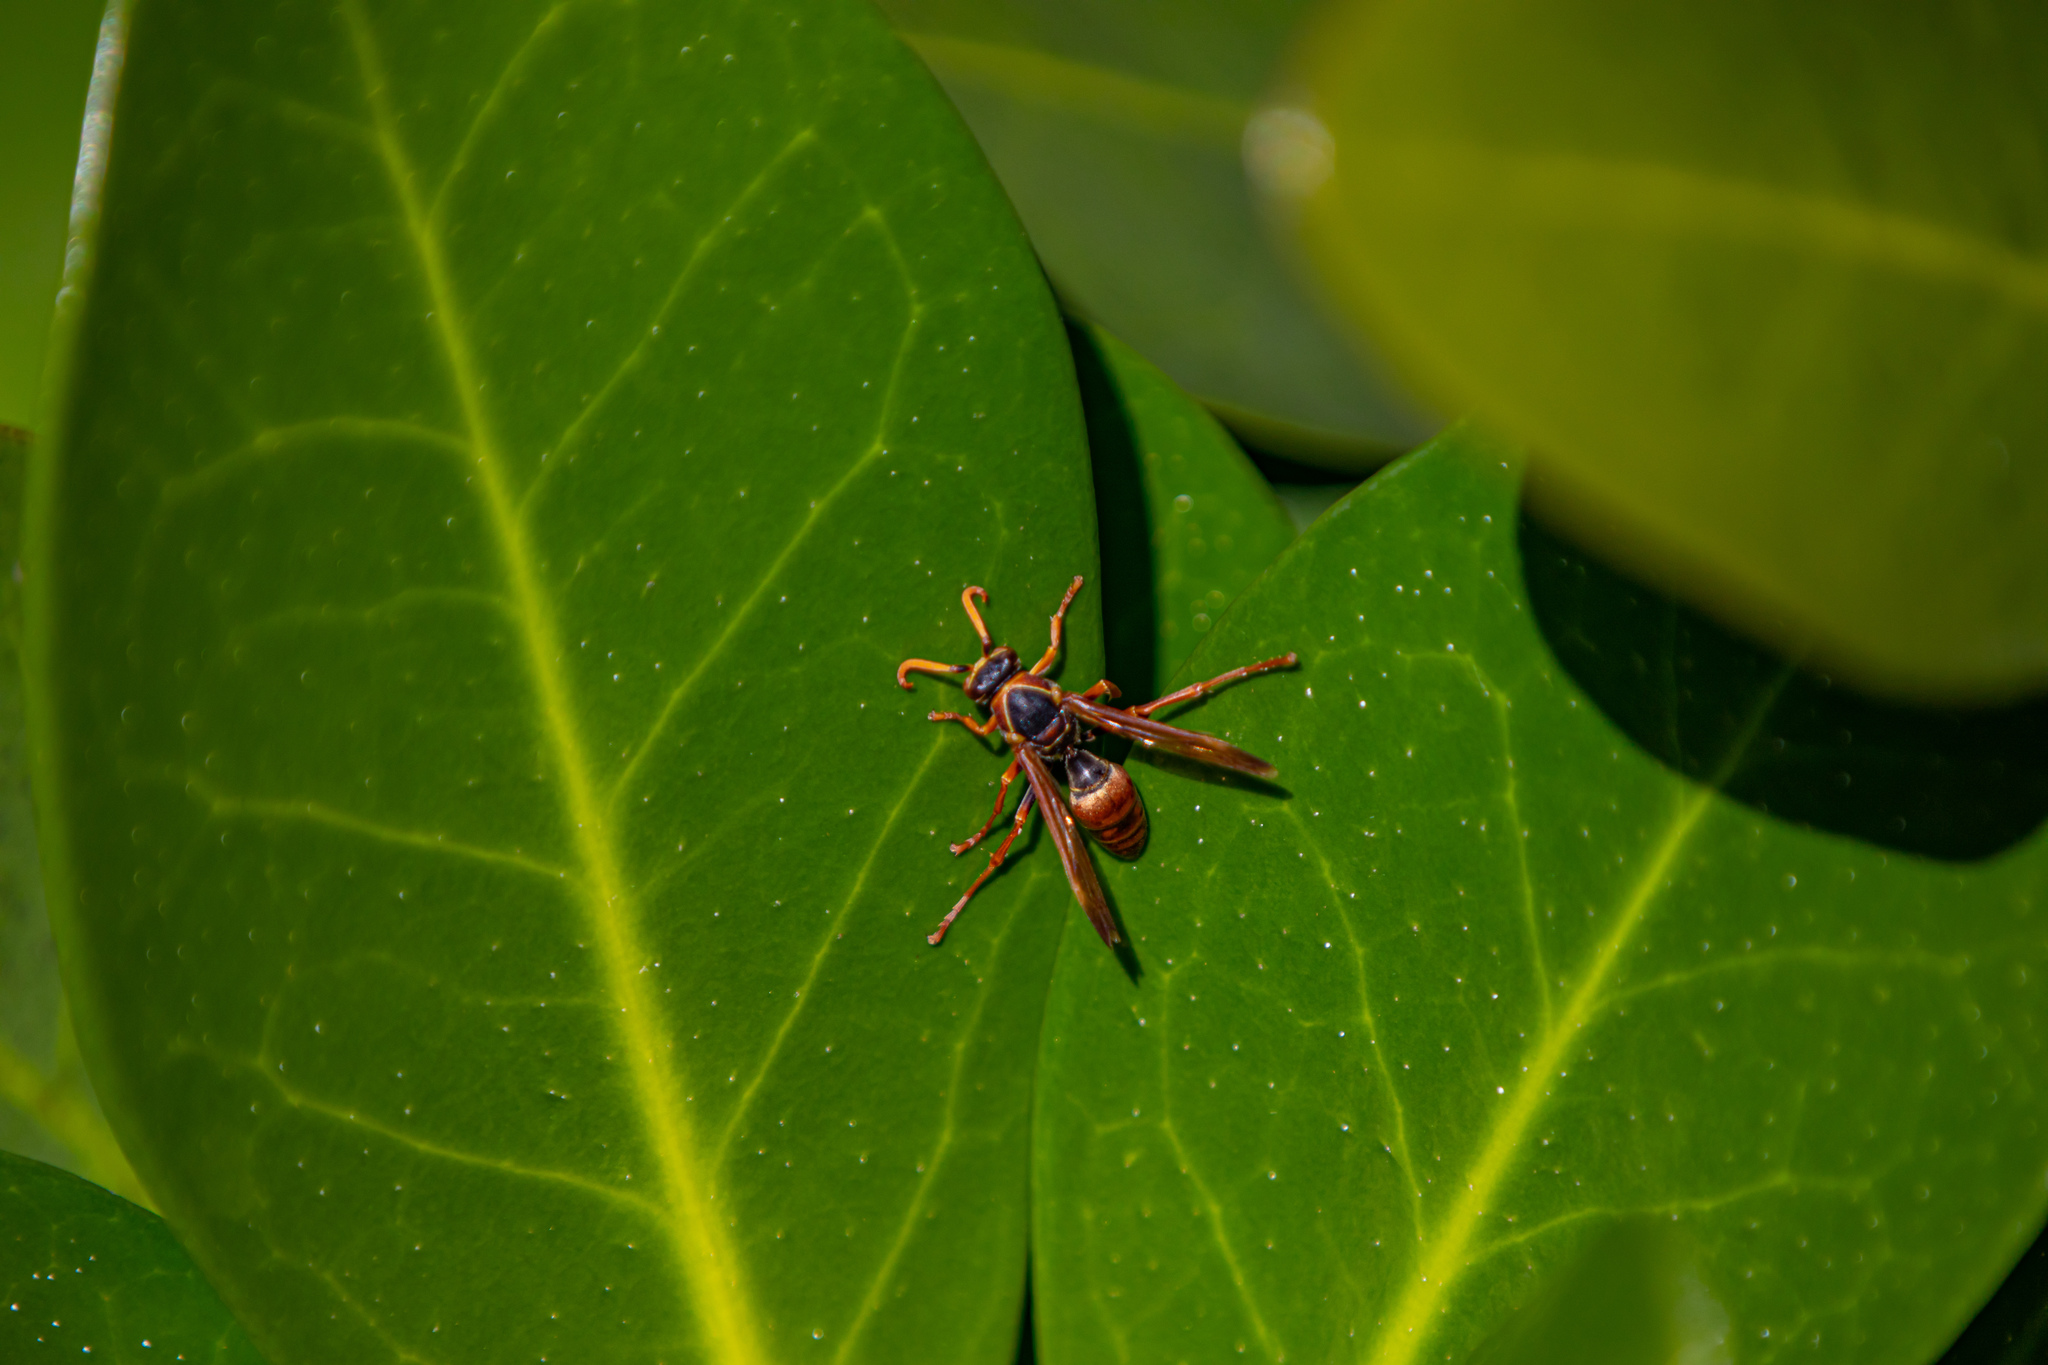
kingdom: Animalia
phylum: Arthropoda
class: Insecta
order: Hymenoptera
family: Eumenidae
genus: Polistes
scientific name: Polistes humilis
